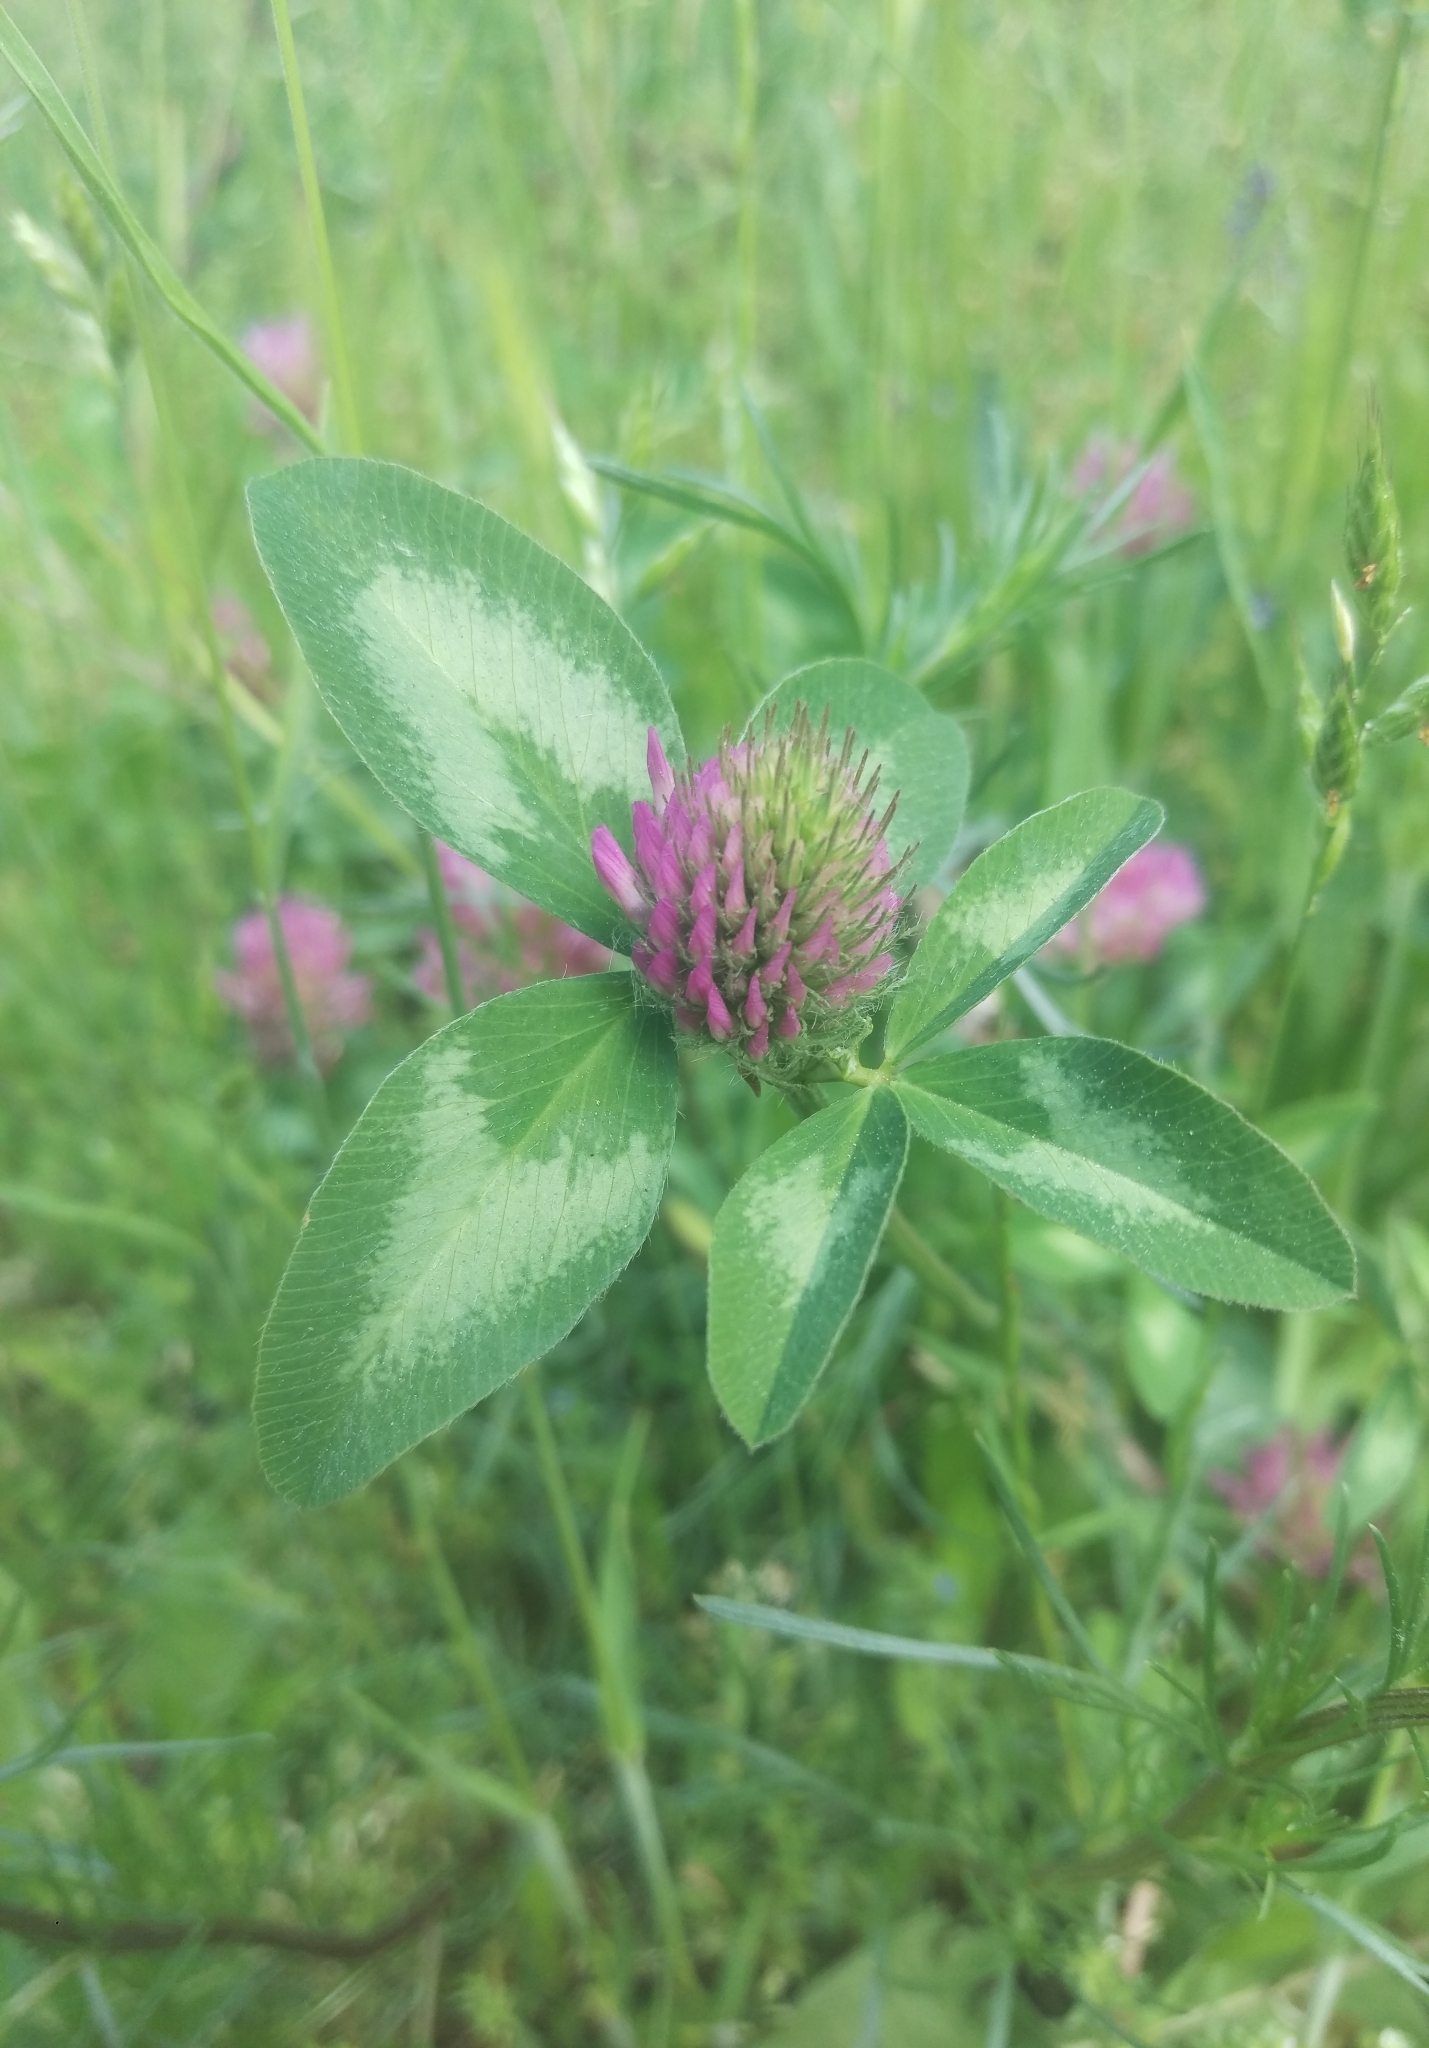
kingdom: Plantae
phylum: Tracheophyta
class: Magnoliopsida
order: Fabales
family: Fabaceae
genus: Trifolium
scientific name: Trifolium pratense
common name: Red clover
